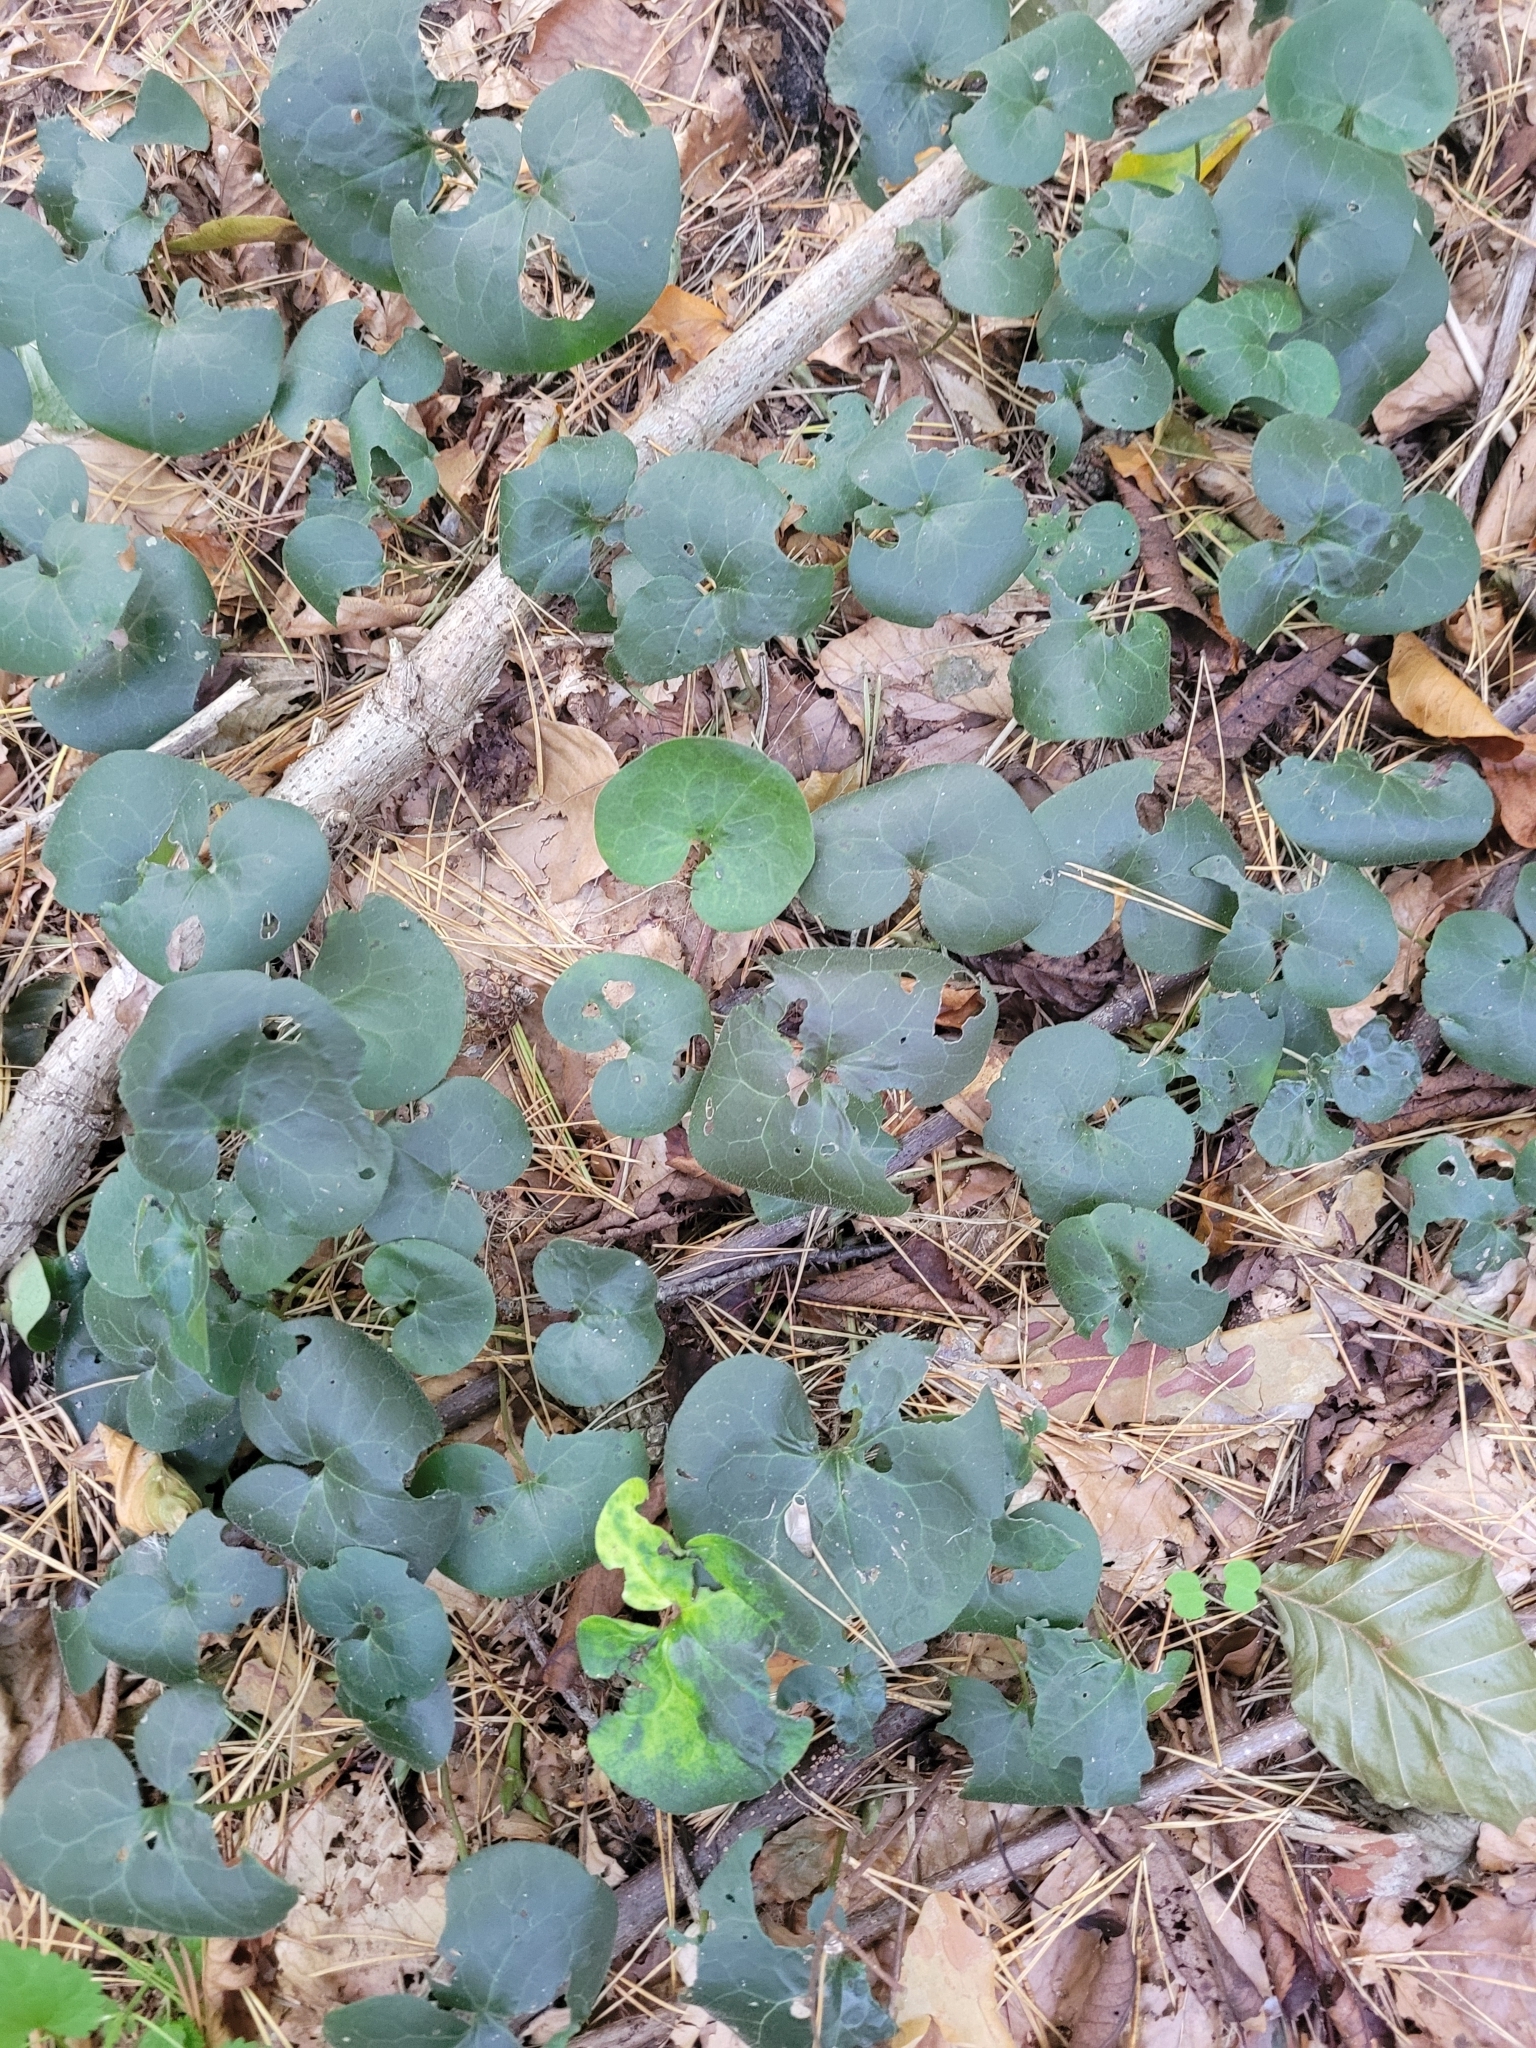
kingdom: Plantae
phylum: Tracheophyta
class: Magnoliopsida
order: Piperales
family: Aristolochiaceae
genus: Asarum
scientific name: Asarum europaeum
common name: Asarabacca
